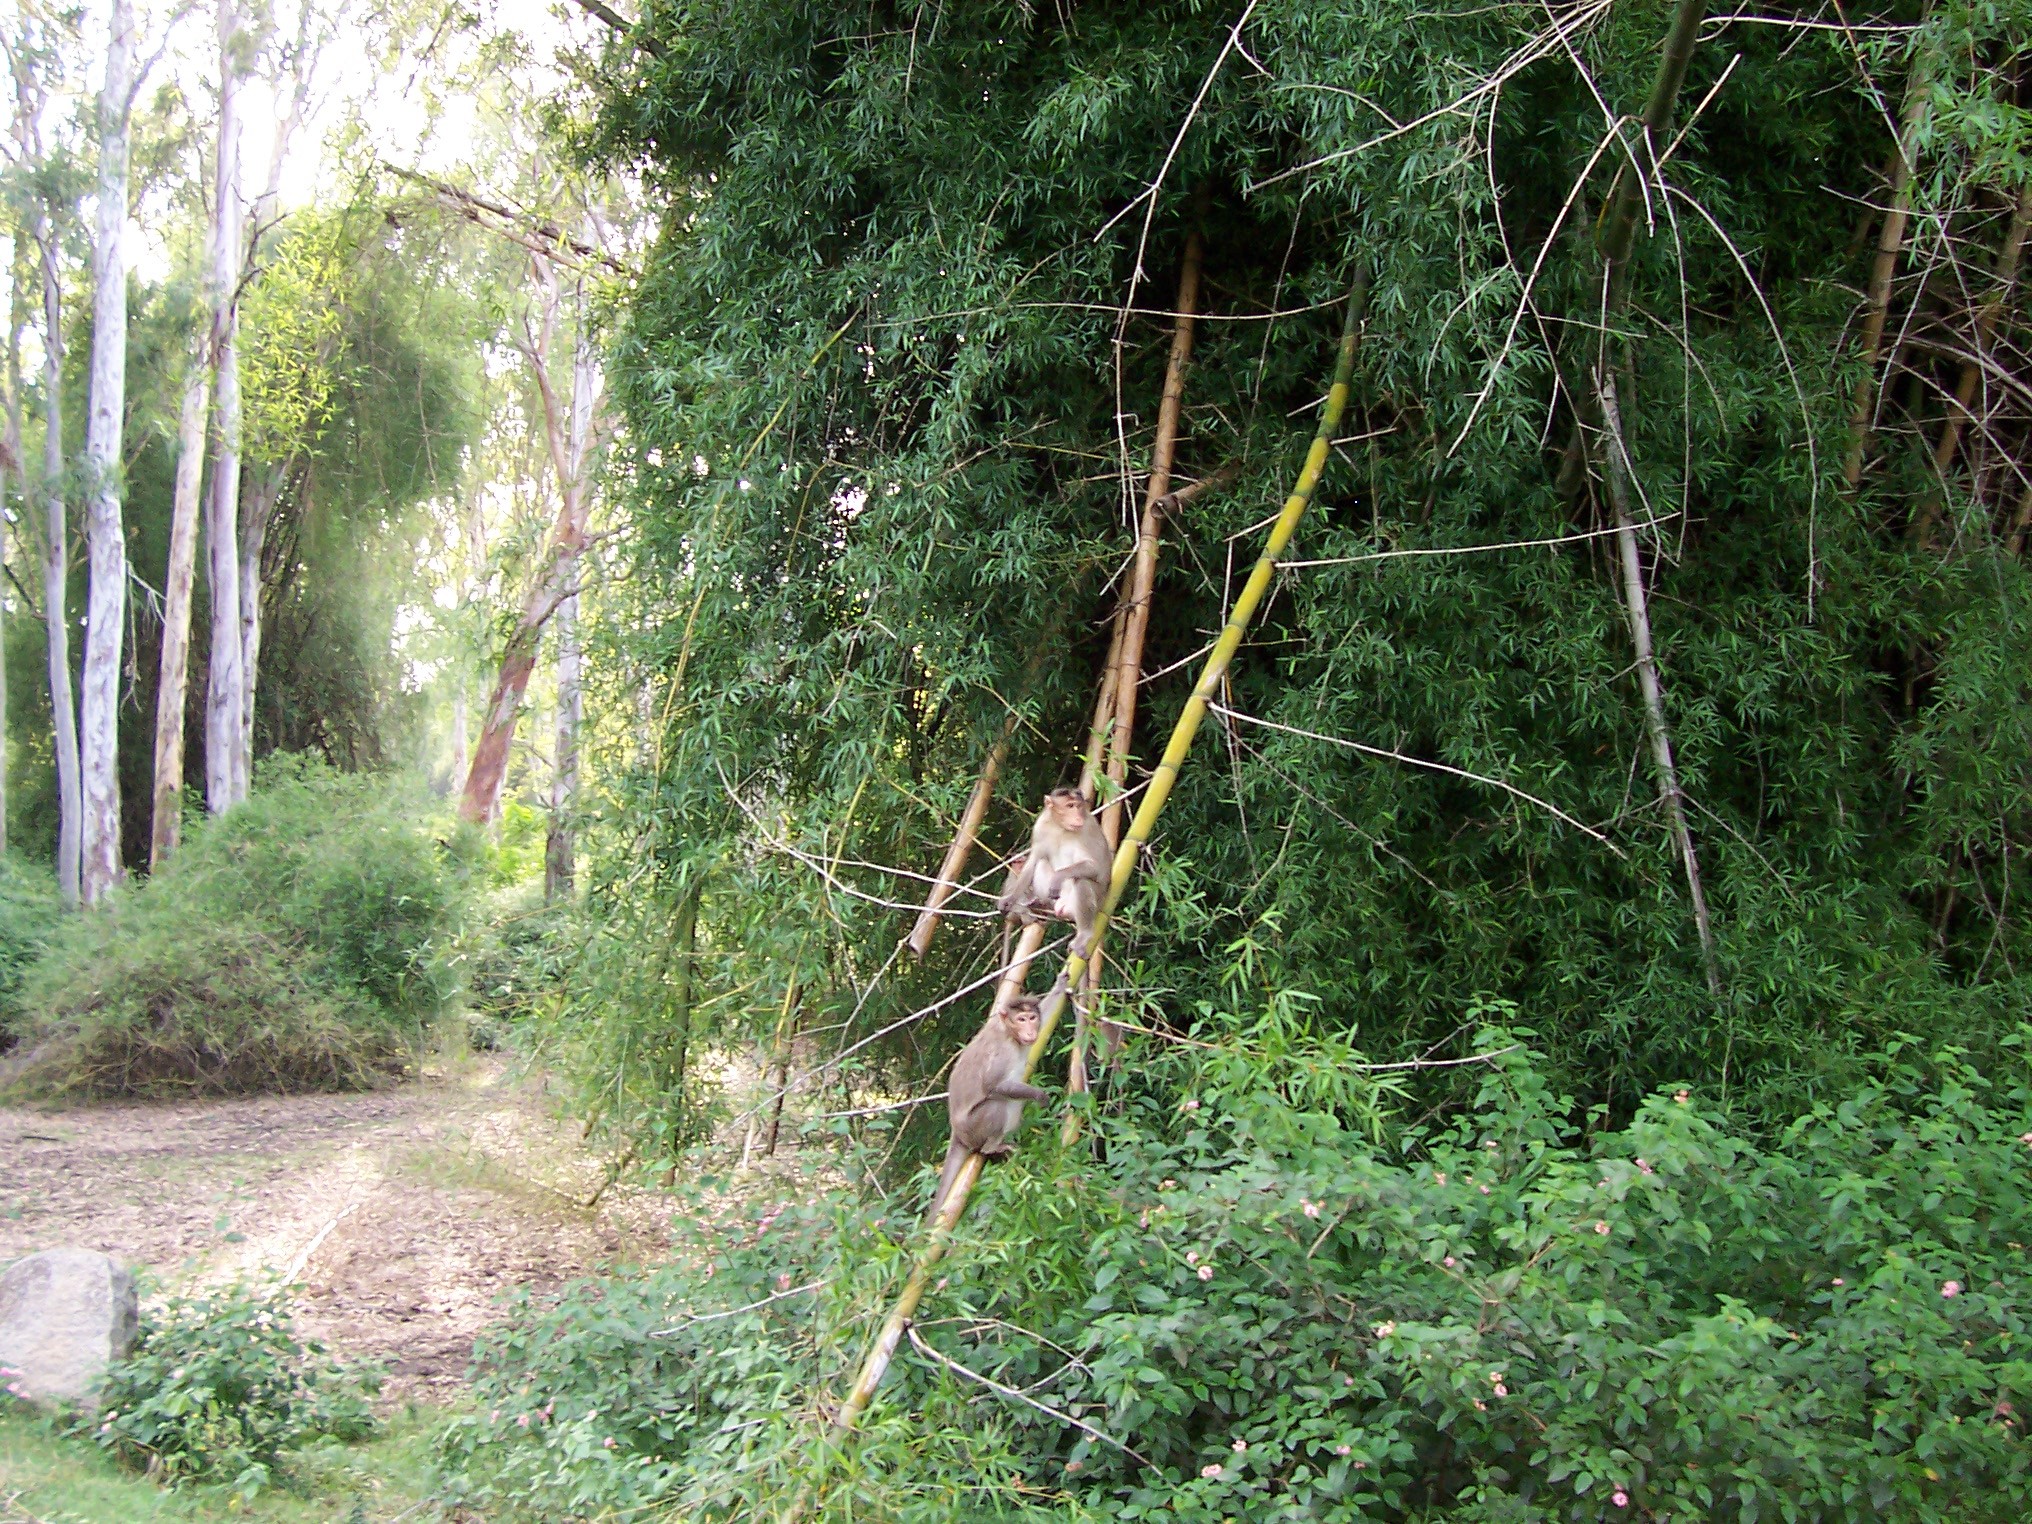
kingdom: Animalia
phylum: Chordata
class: Mammalia
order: Primates
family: Cercopithecidae
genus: Macaca
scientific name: Macaca radiata
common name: Bonnet macaque
